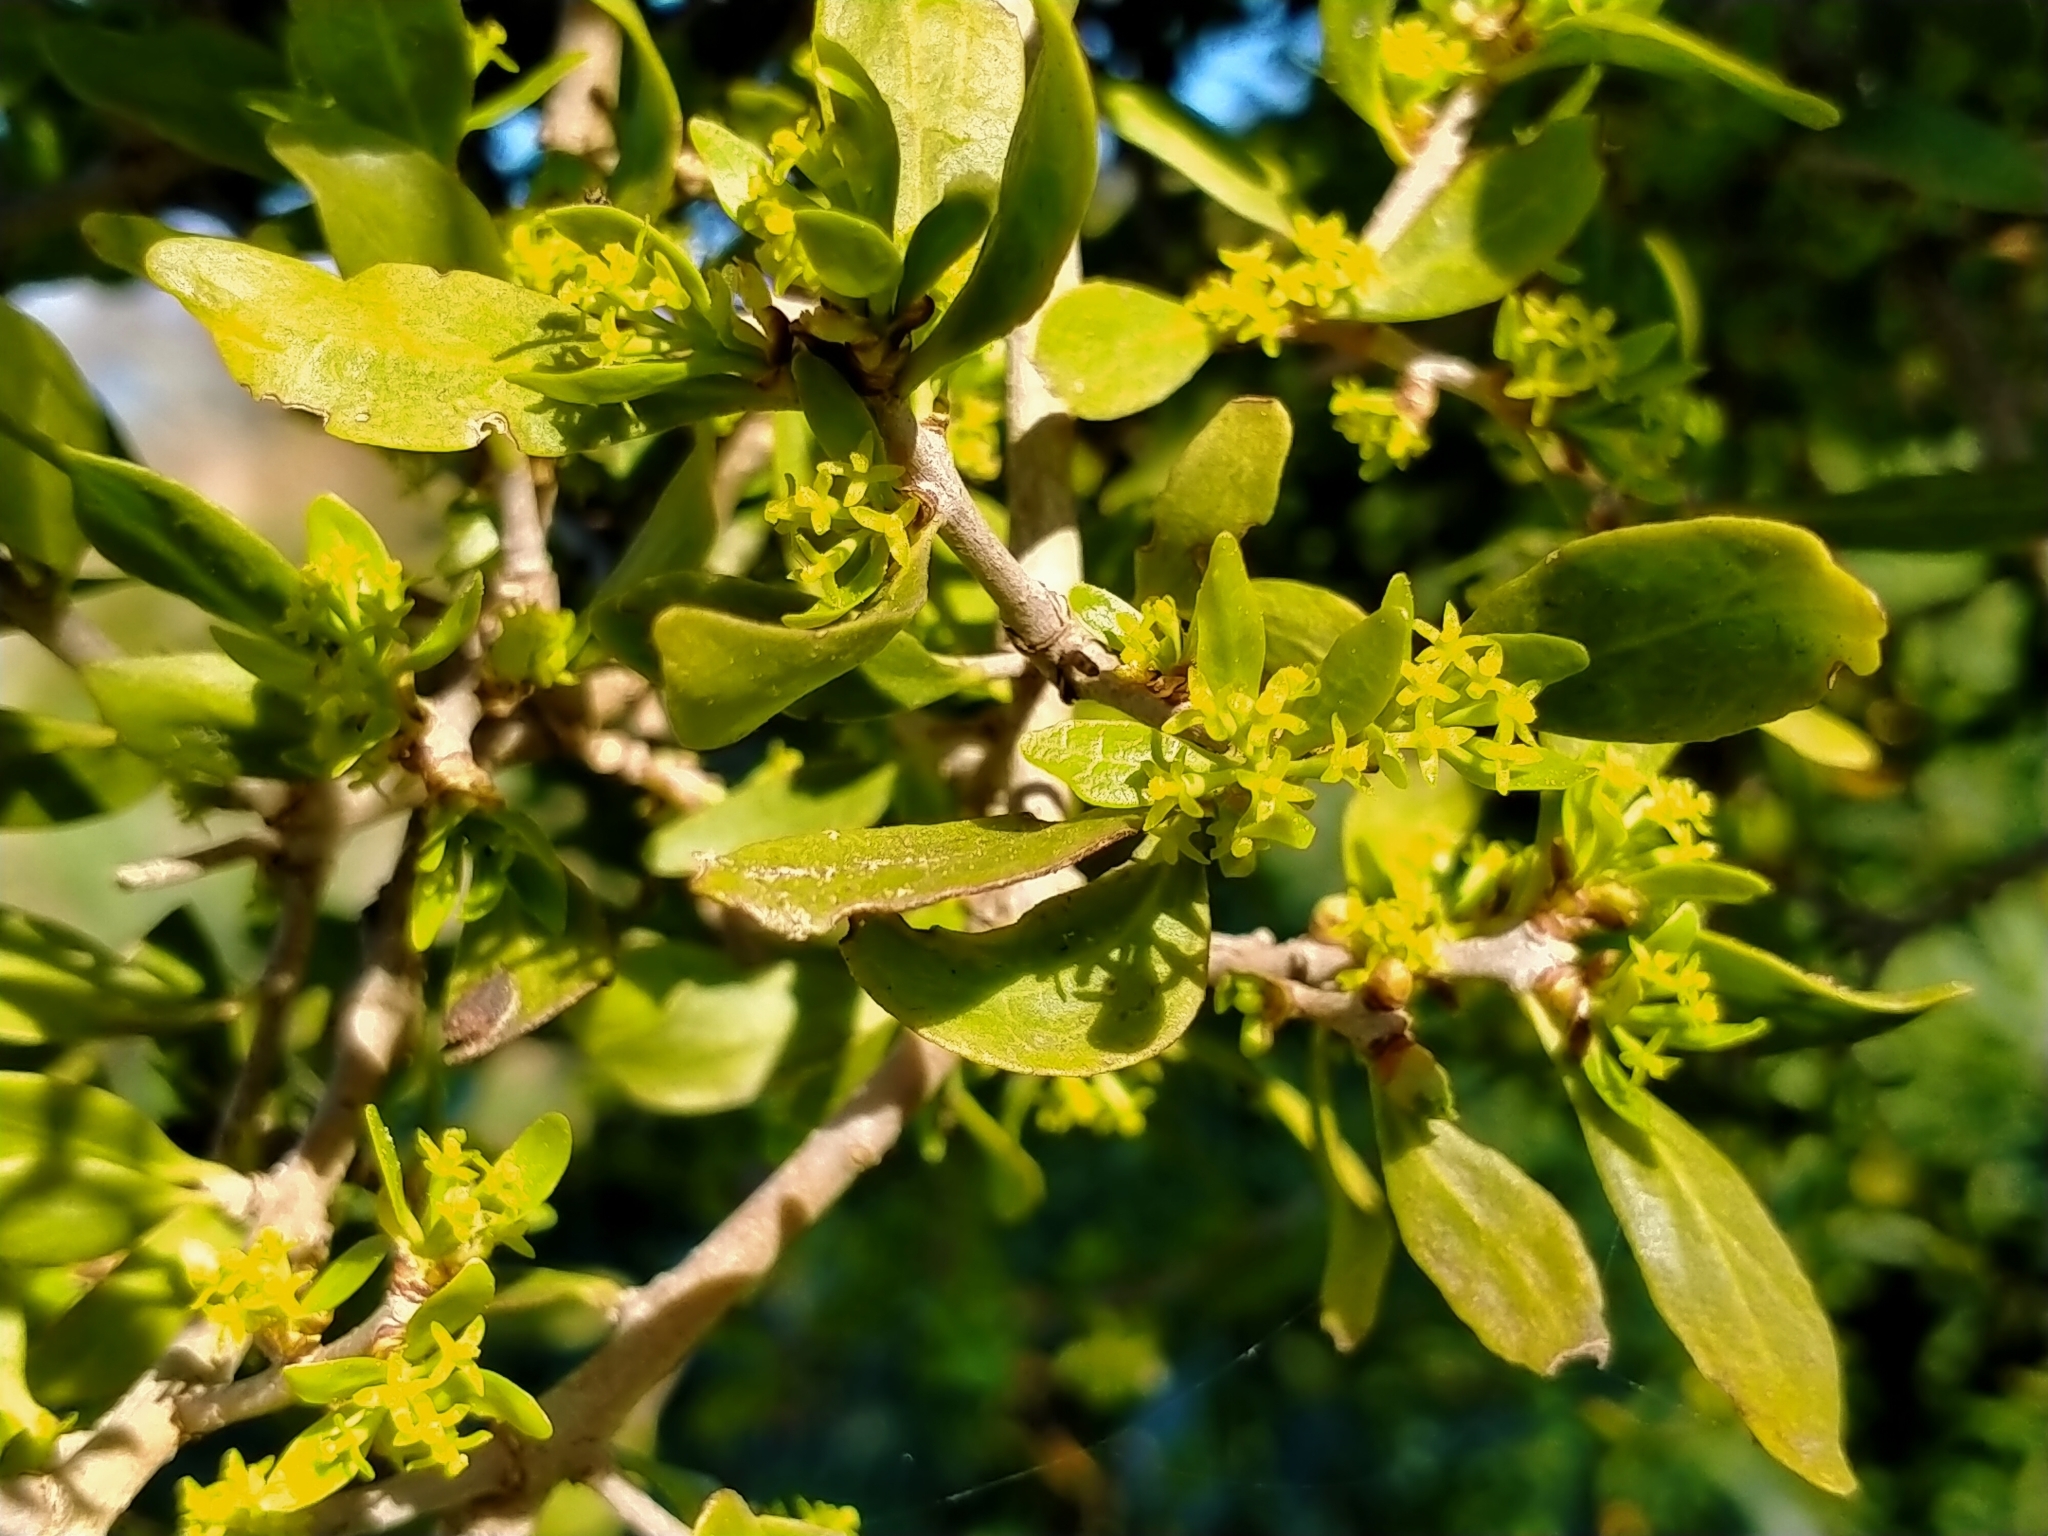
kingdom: Plantae
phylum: Tracheophyta
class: Magnoliopsida
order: Santalales
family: Loranthaceae
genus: Tupeia
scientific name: Tupeia antarctica
